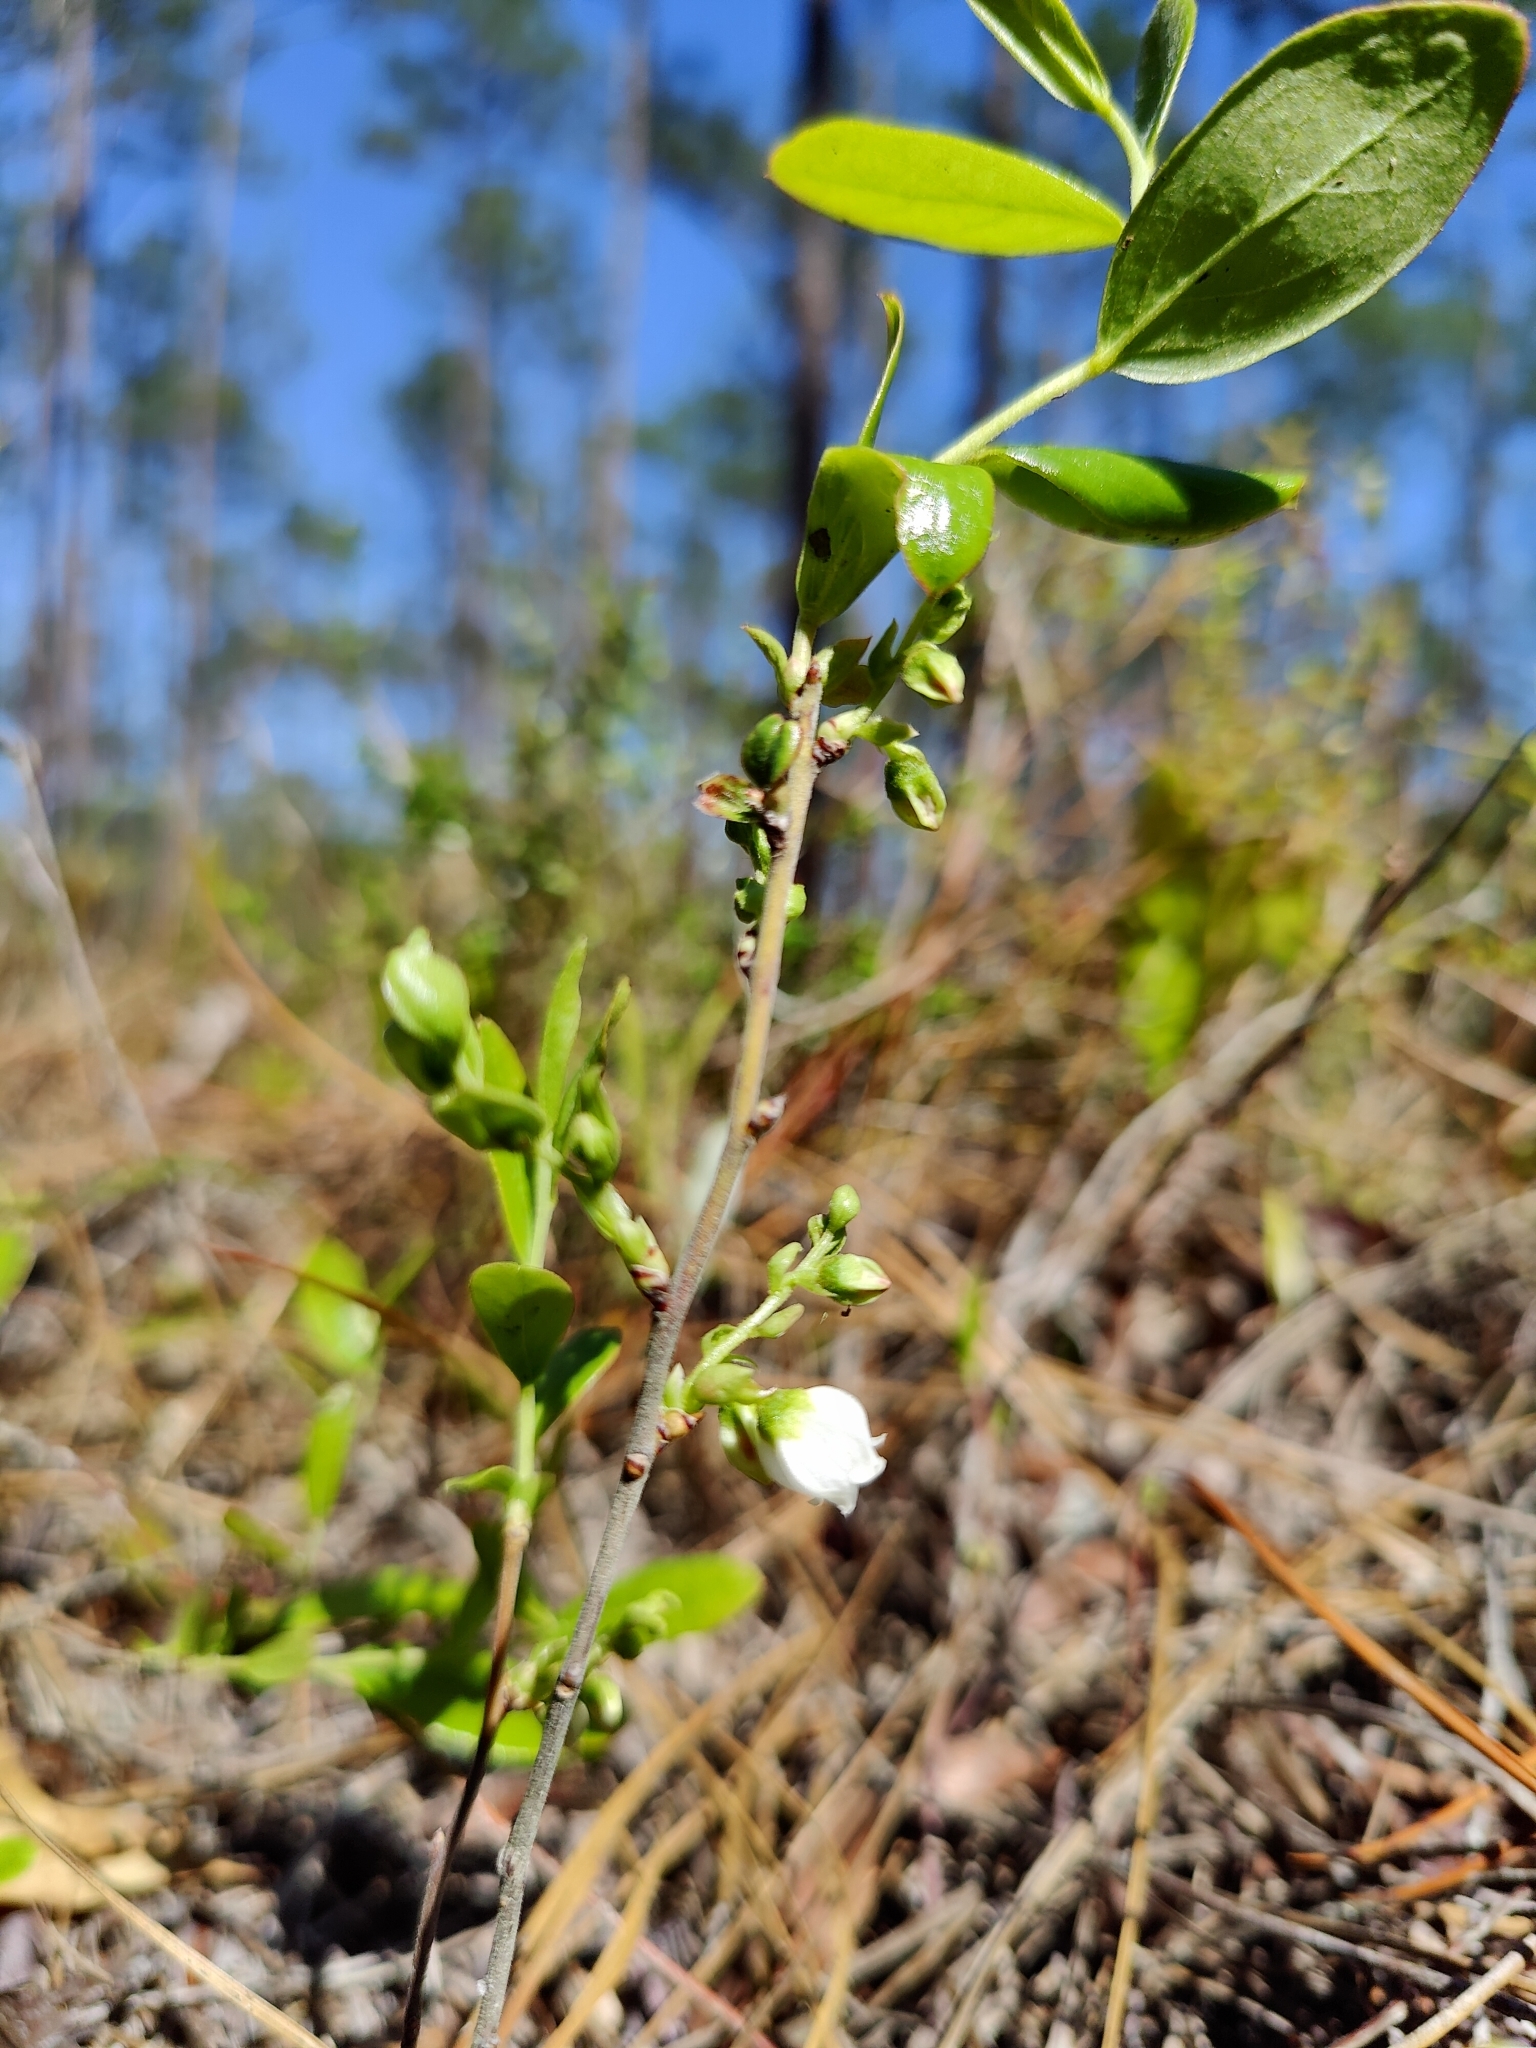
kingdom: Plantae
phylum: Tracheophyta
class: Magnoliopsida
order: Ericales
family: Ericaceae
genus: Gaylussacia
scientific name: Gaylussacia dumosa
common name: Dwarf huckleberry
